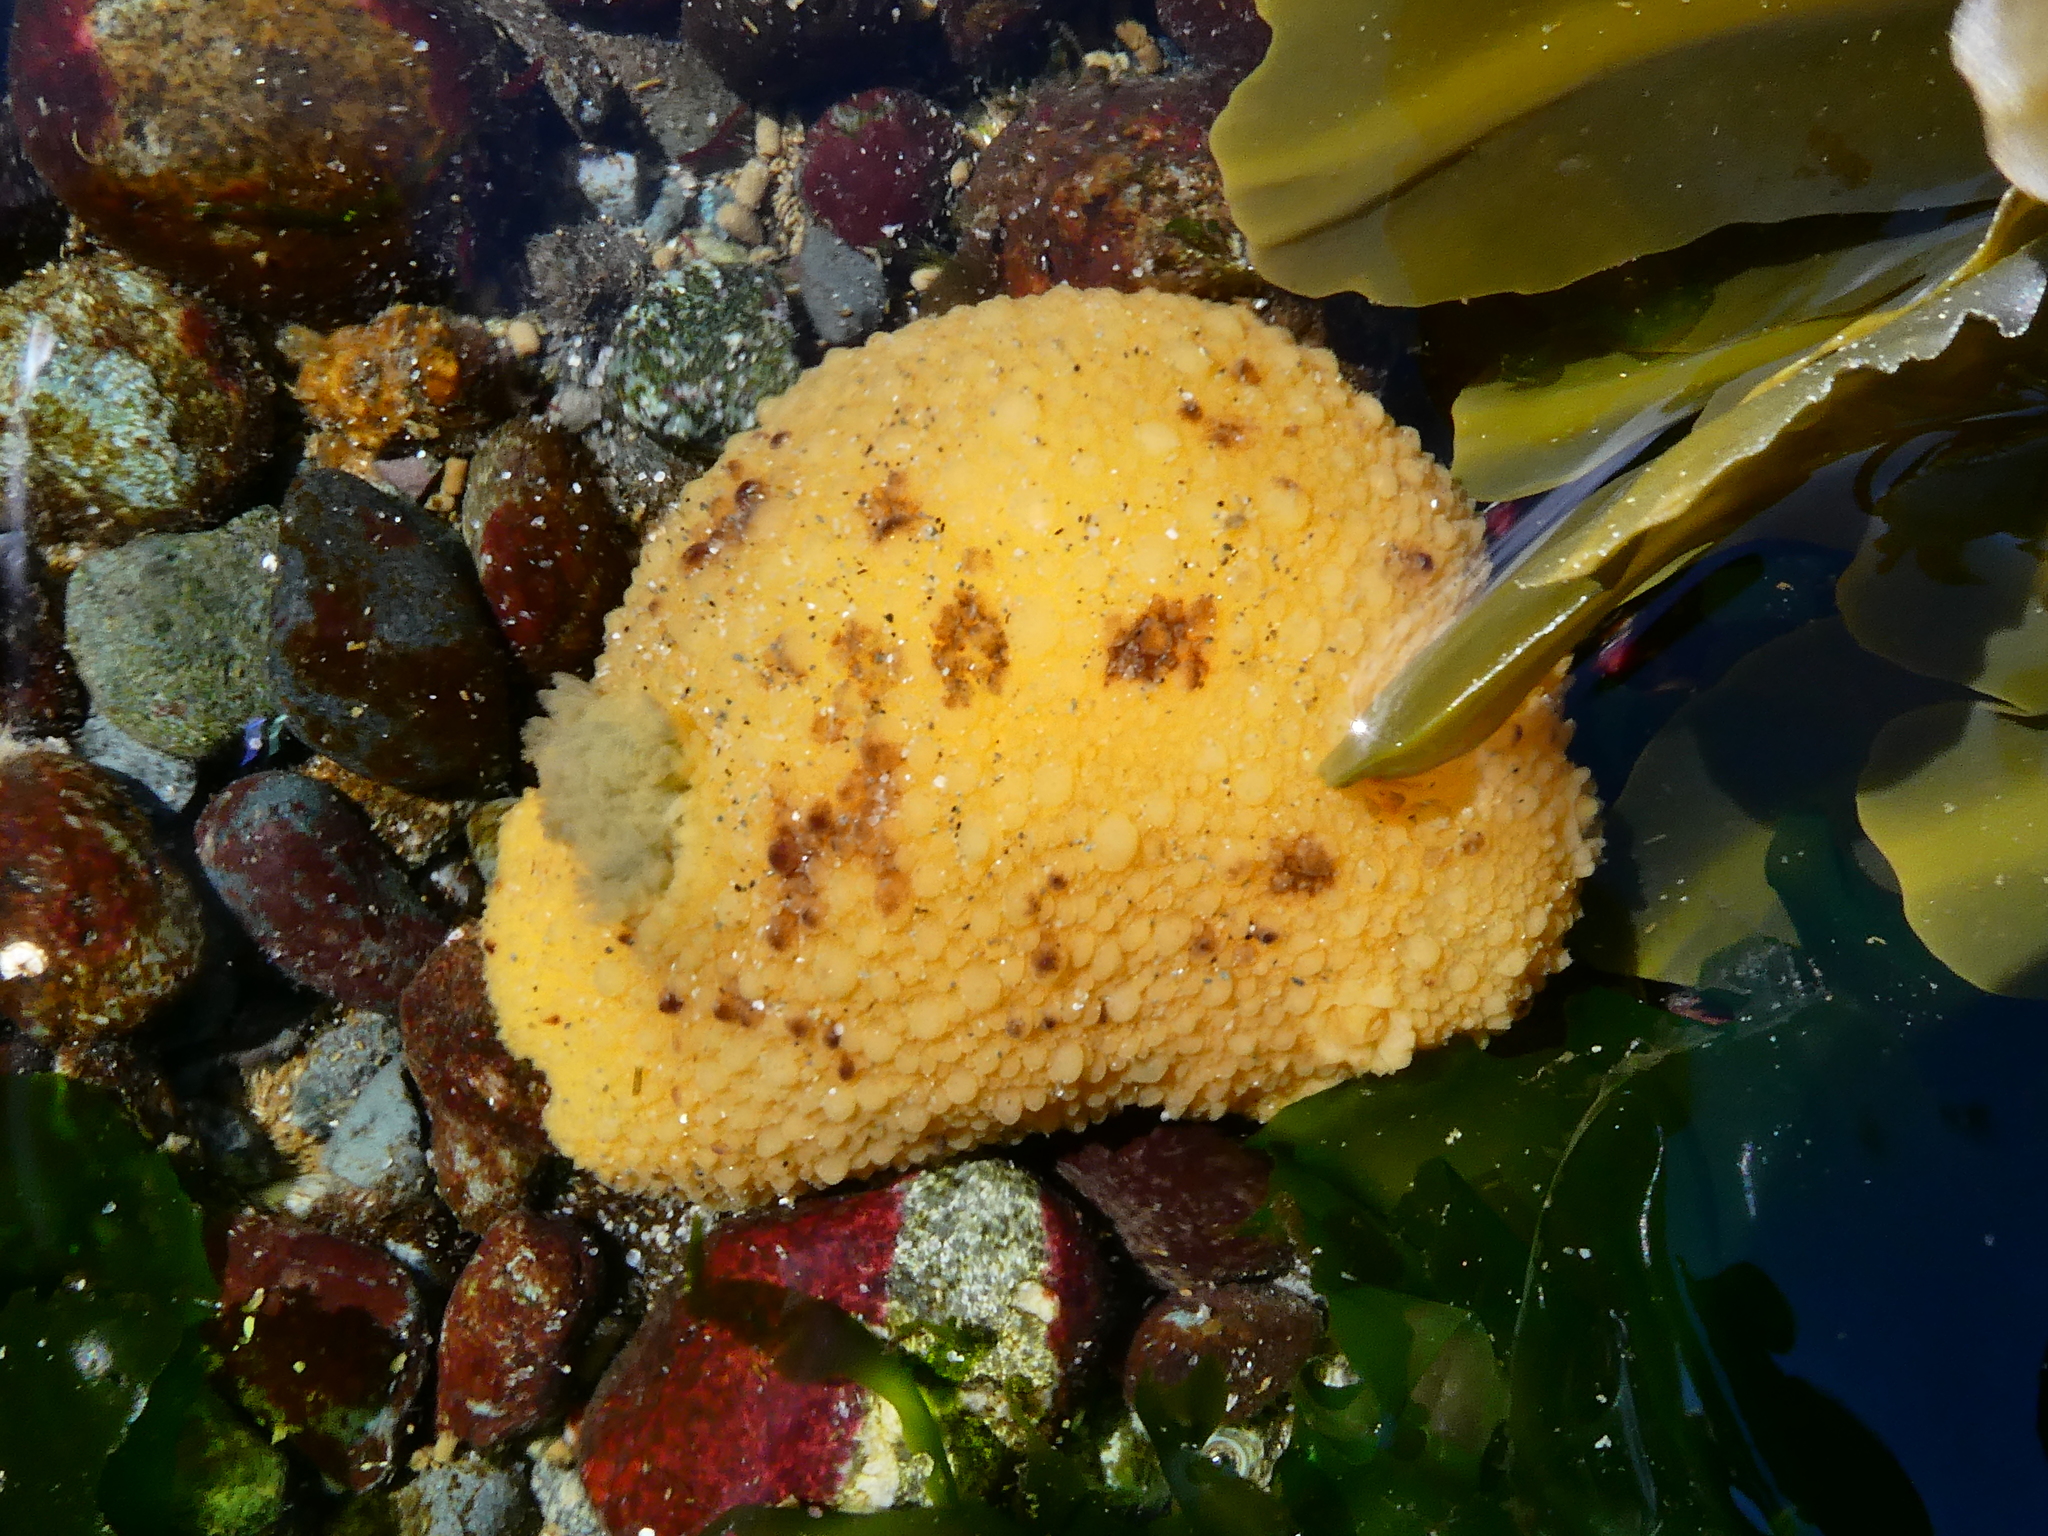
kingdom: Animalia
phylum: Mollusca
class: Gastropoda
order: Nudibranchia
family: Dorididae
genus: Doris
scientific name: Doris montereyensis
